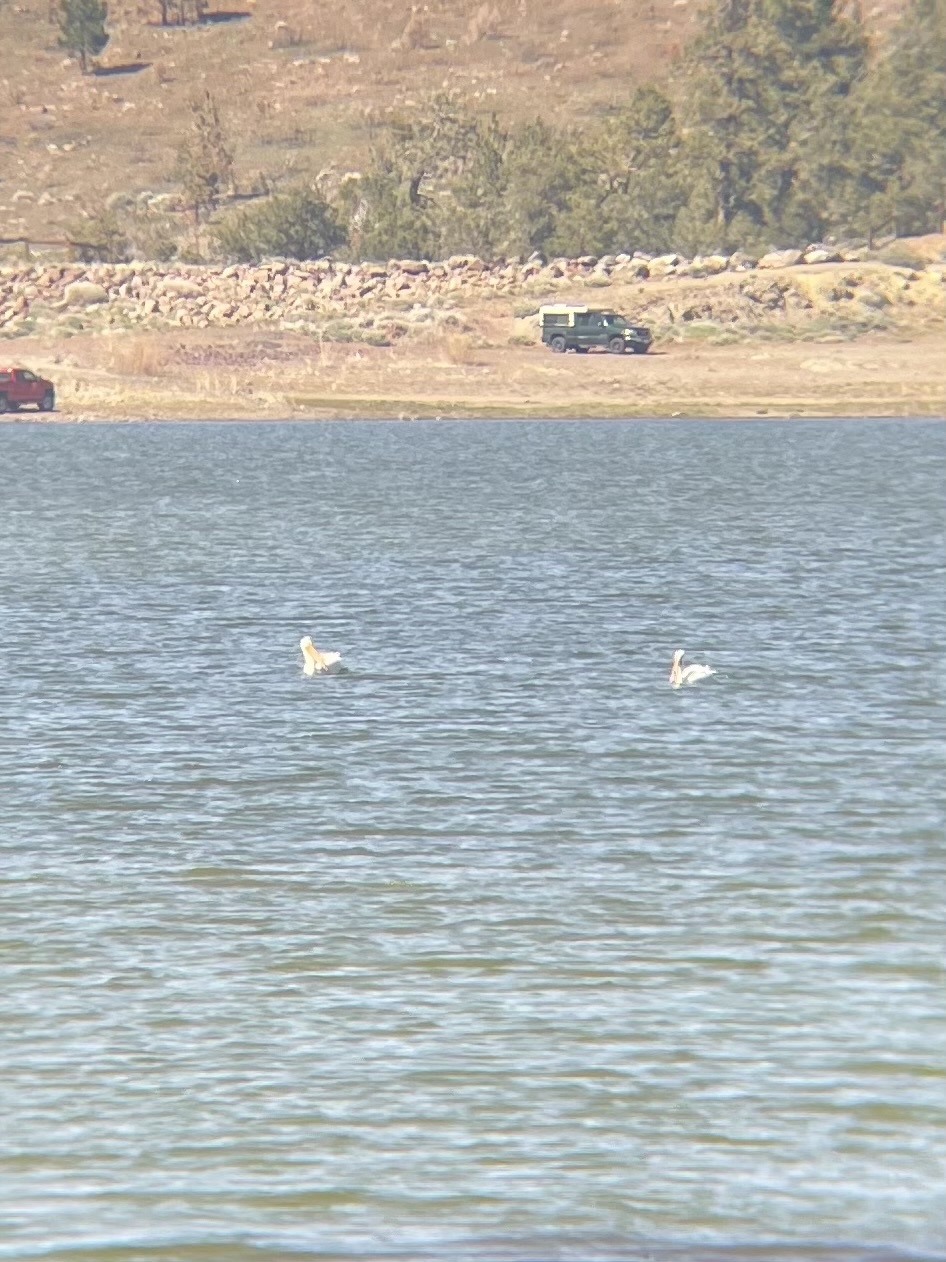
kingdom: Animalia
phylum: Chordata
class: Aves
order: Pelecaniformes
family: Pelecanidae
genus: Pelecanus
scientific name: Pelecanus erythrorhynchos
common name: American white pelican
